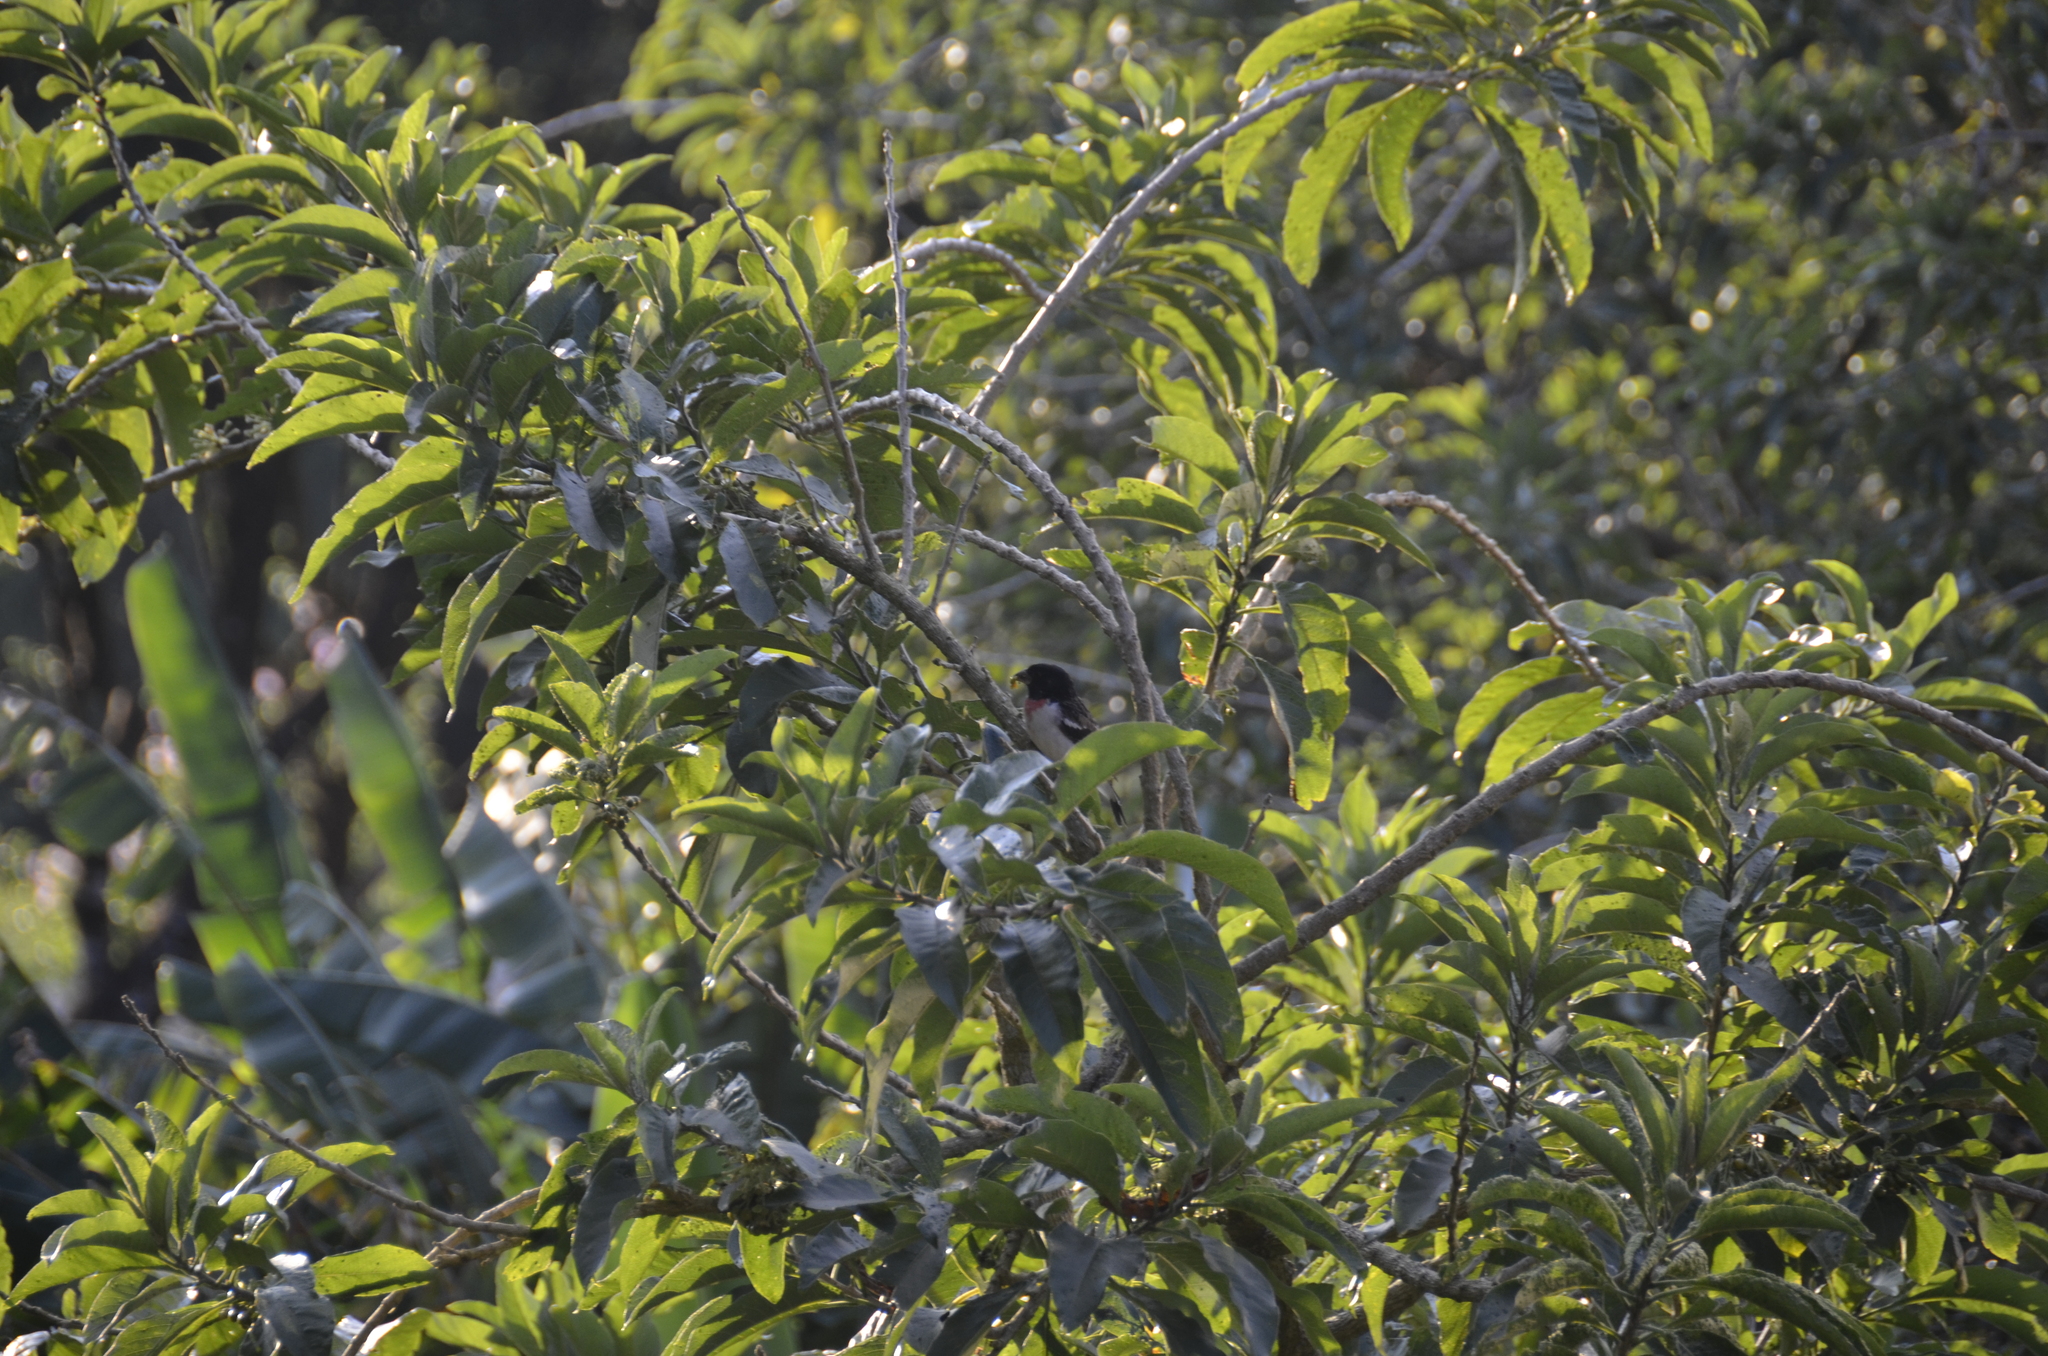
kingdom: Animalia
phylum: Chordata
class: Aves
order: Passeriformes
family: Cardinalidae
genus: Pheucticus
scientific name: Pheucticus ludovicianus
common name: Rose-breasted grosbeak
